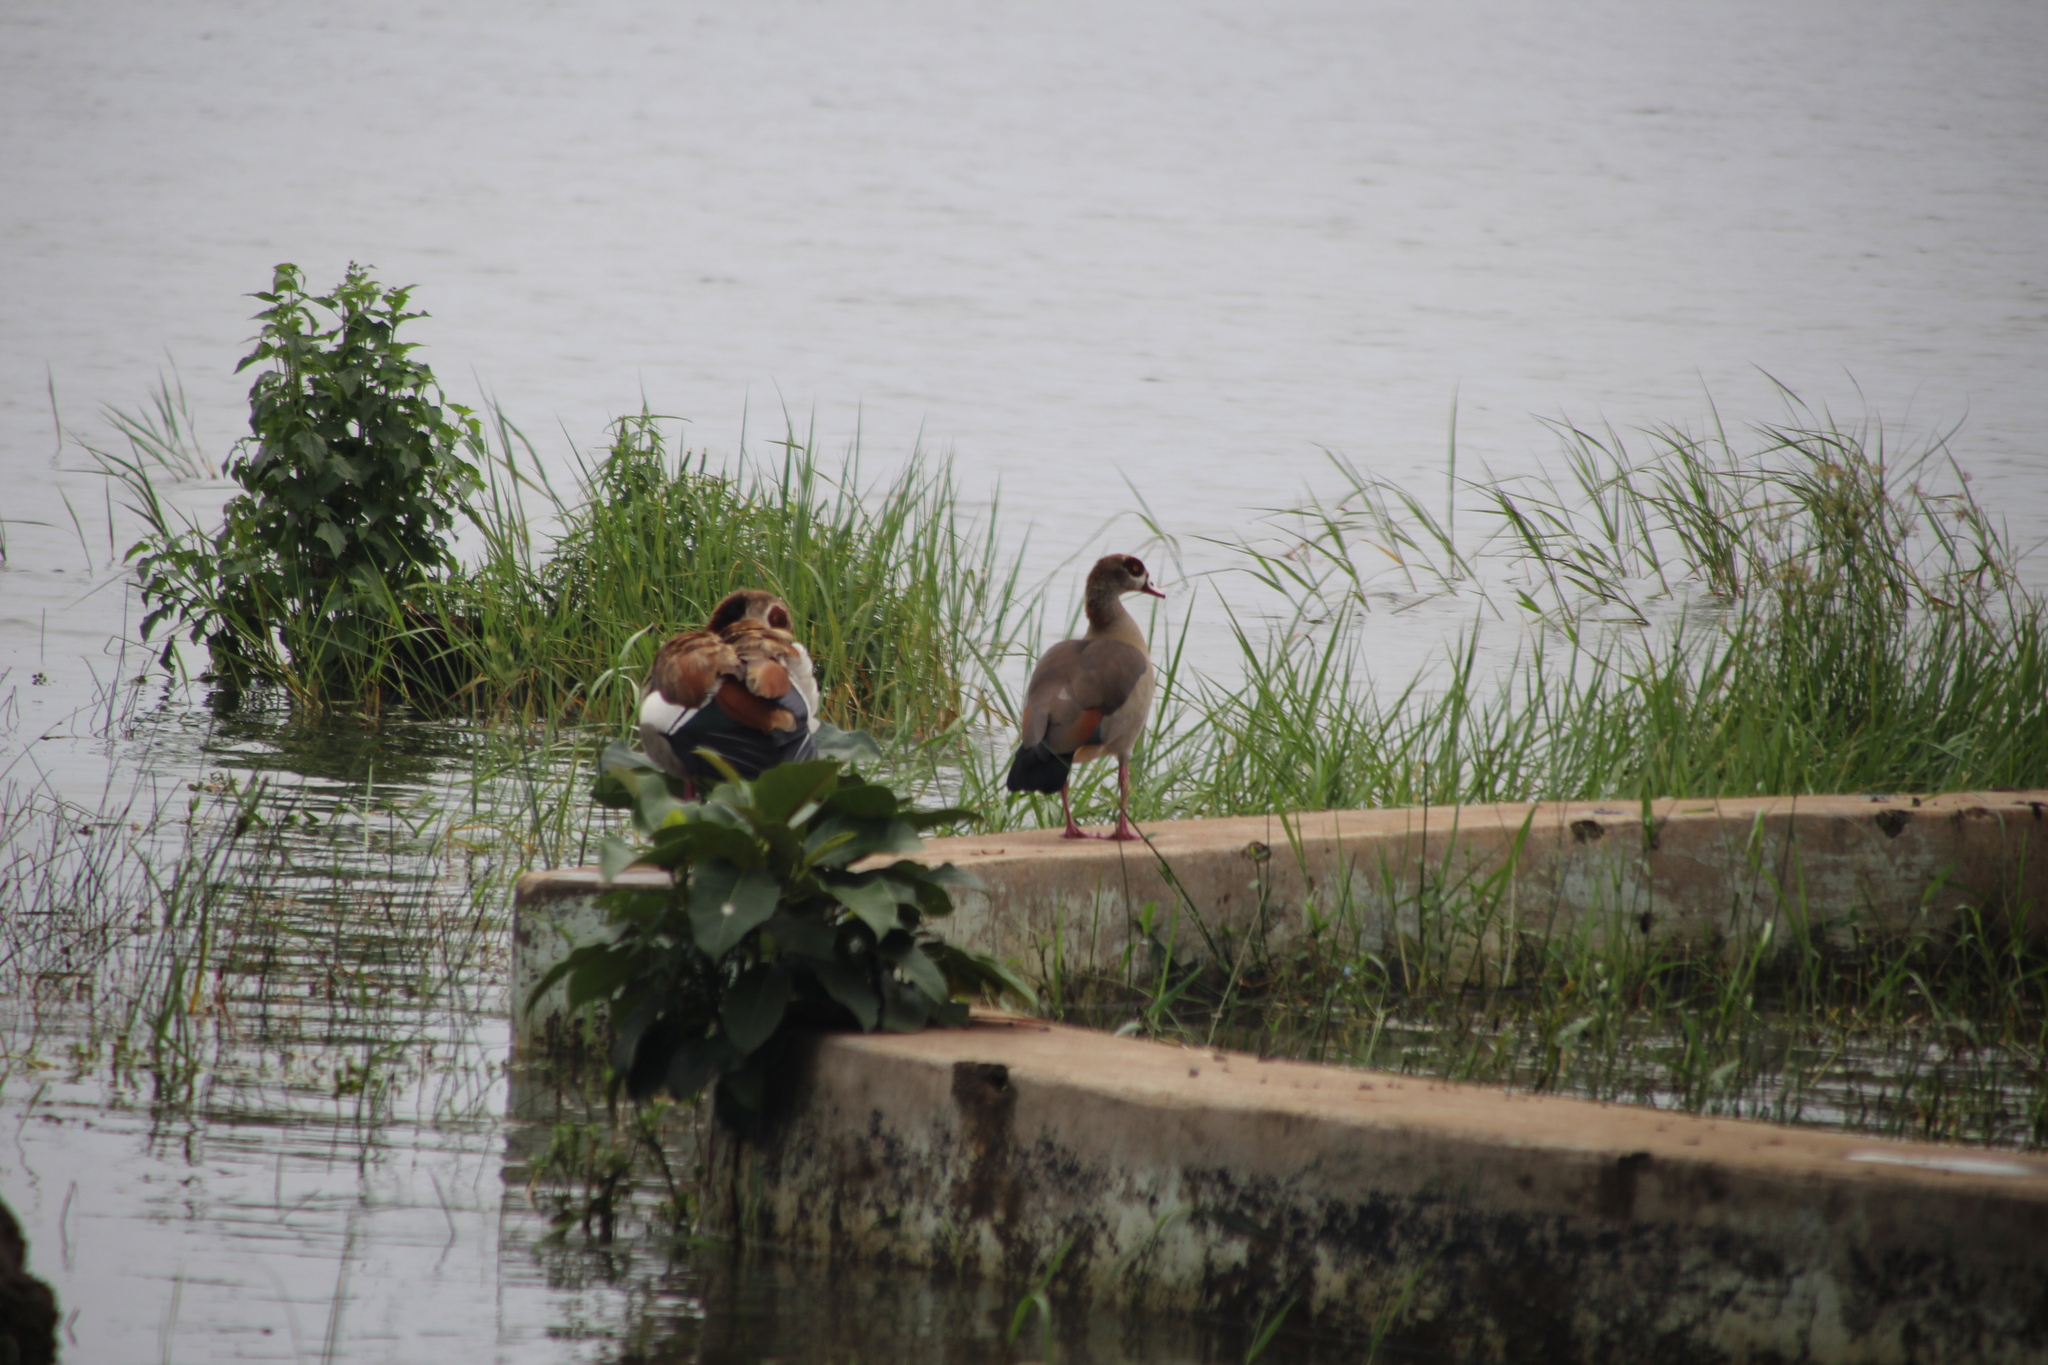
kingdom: Animalia
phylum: Chordata
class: Aves
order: Anseriformes
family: Anatidae
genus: Alopochen
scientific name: Alopochen aegyptiaca
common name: Egyptian goose
